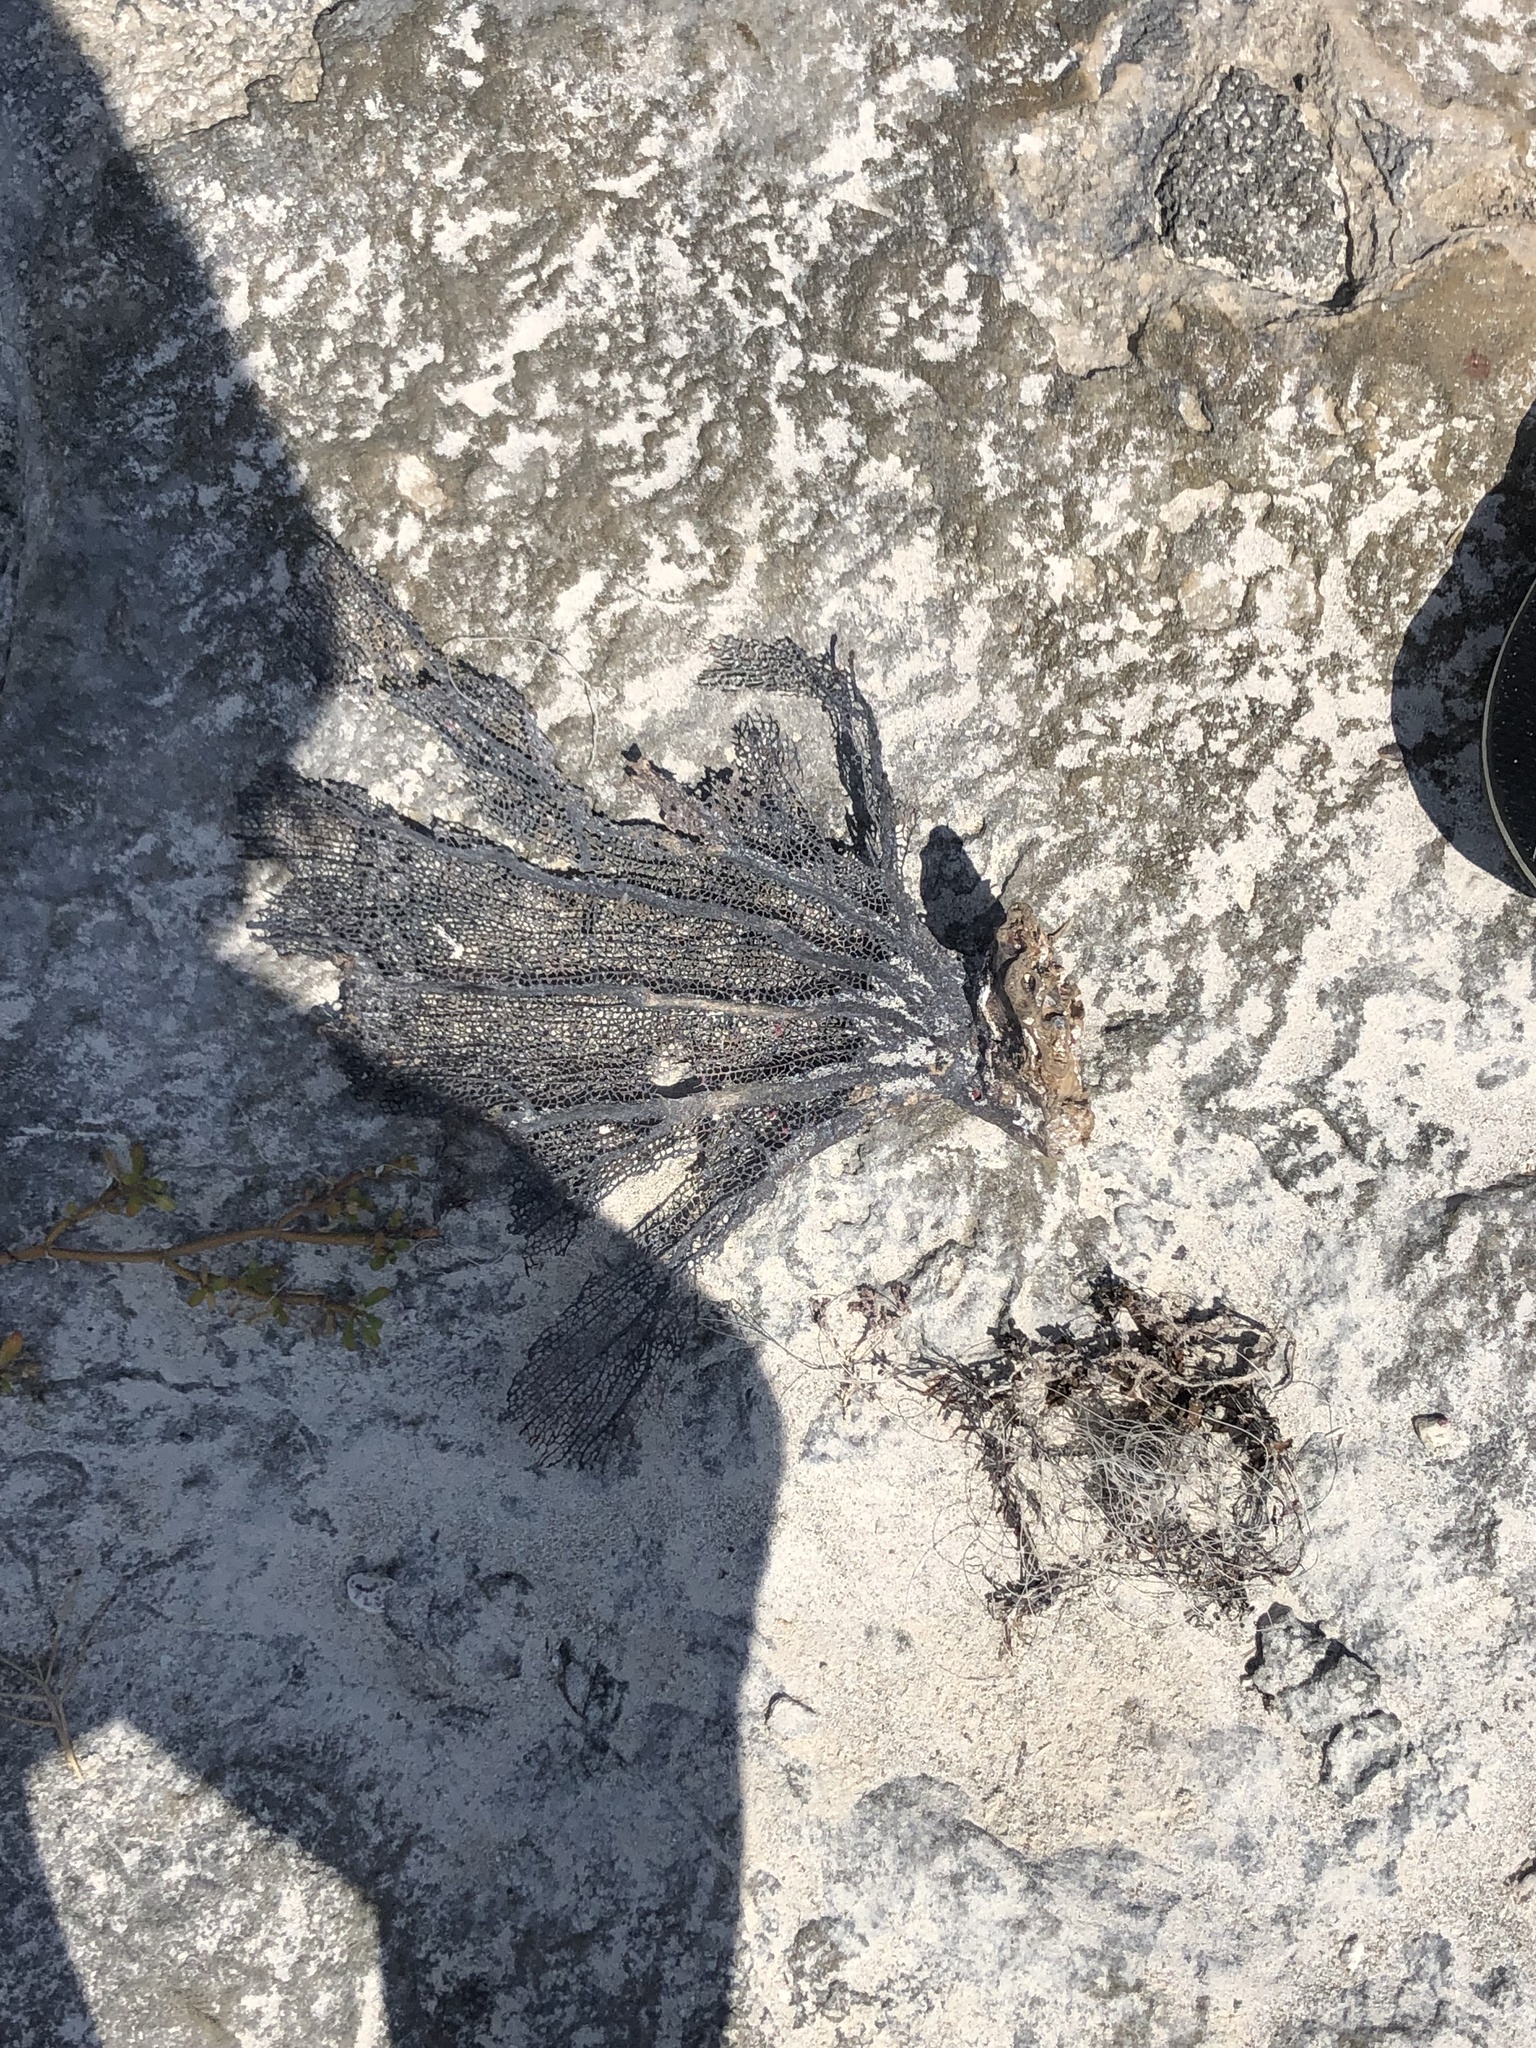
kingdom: Animalia
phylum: Cnidaria
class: Anthozoa
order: Malacalcyonacea
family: Gorgoniidae
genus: Gorgonia
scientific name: Gorgonia ventalina
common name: Common sea fan
